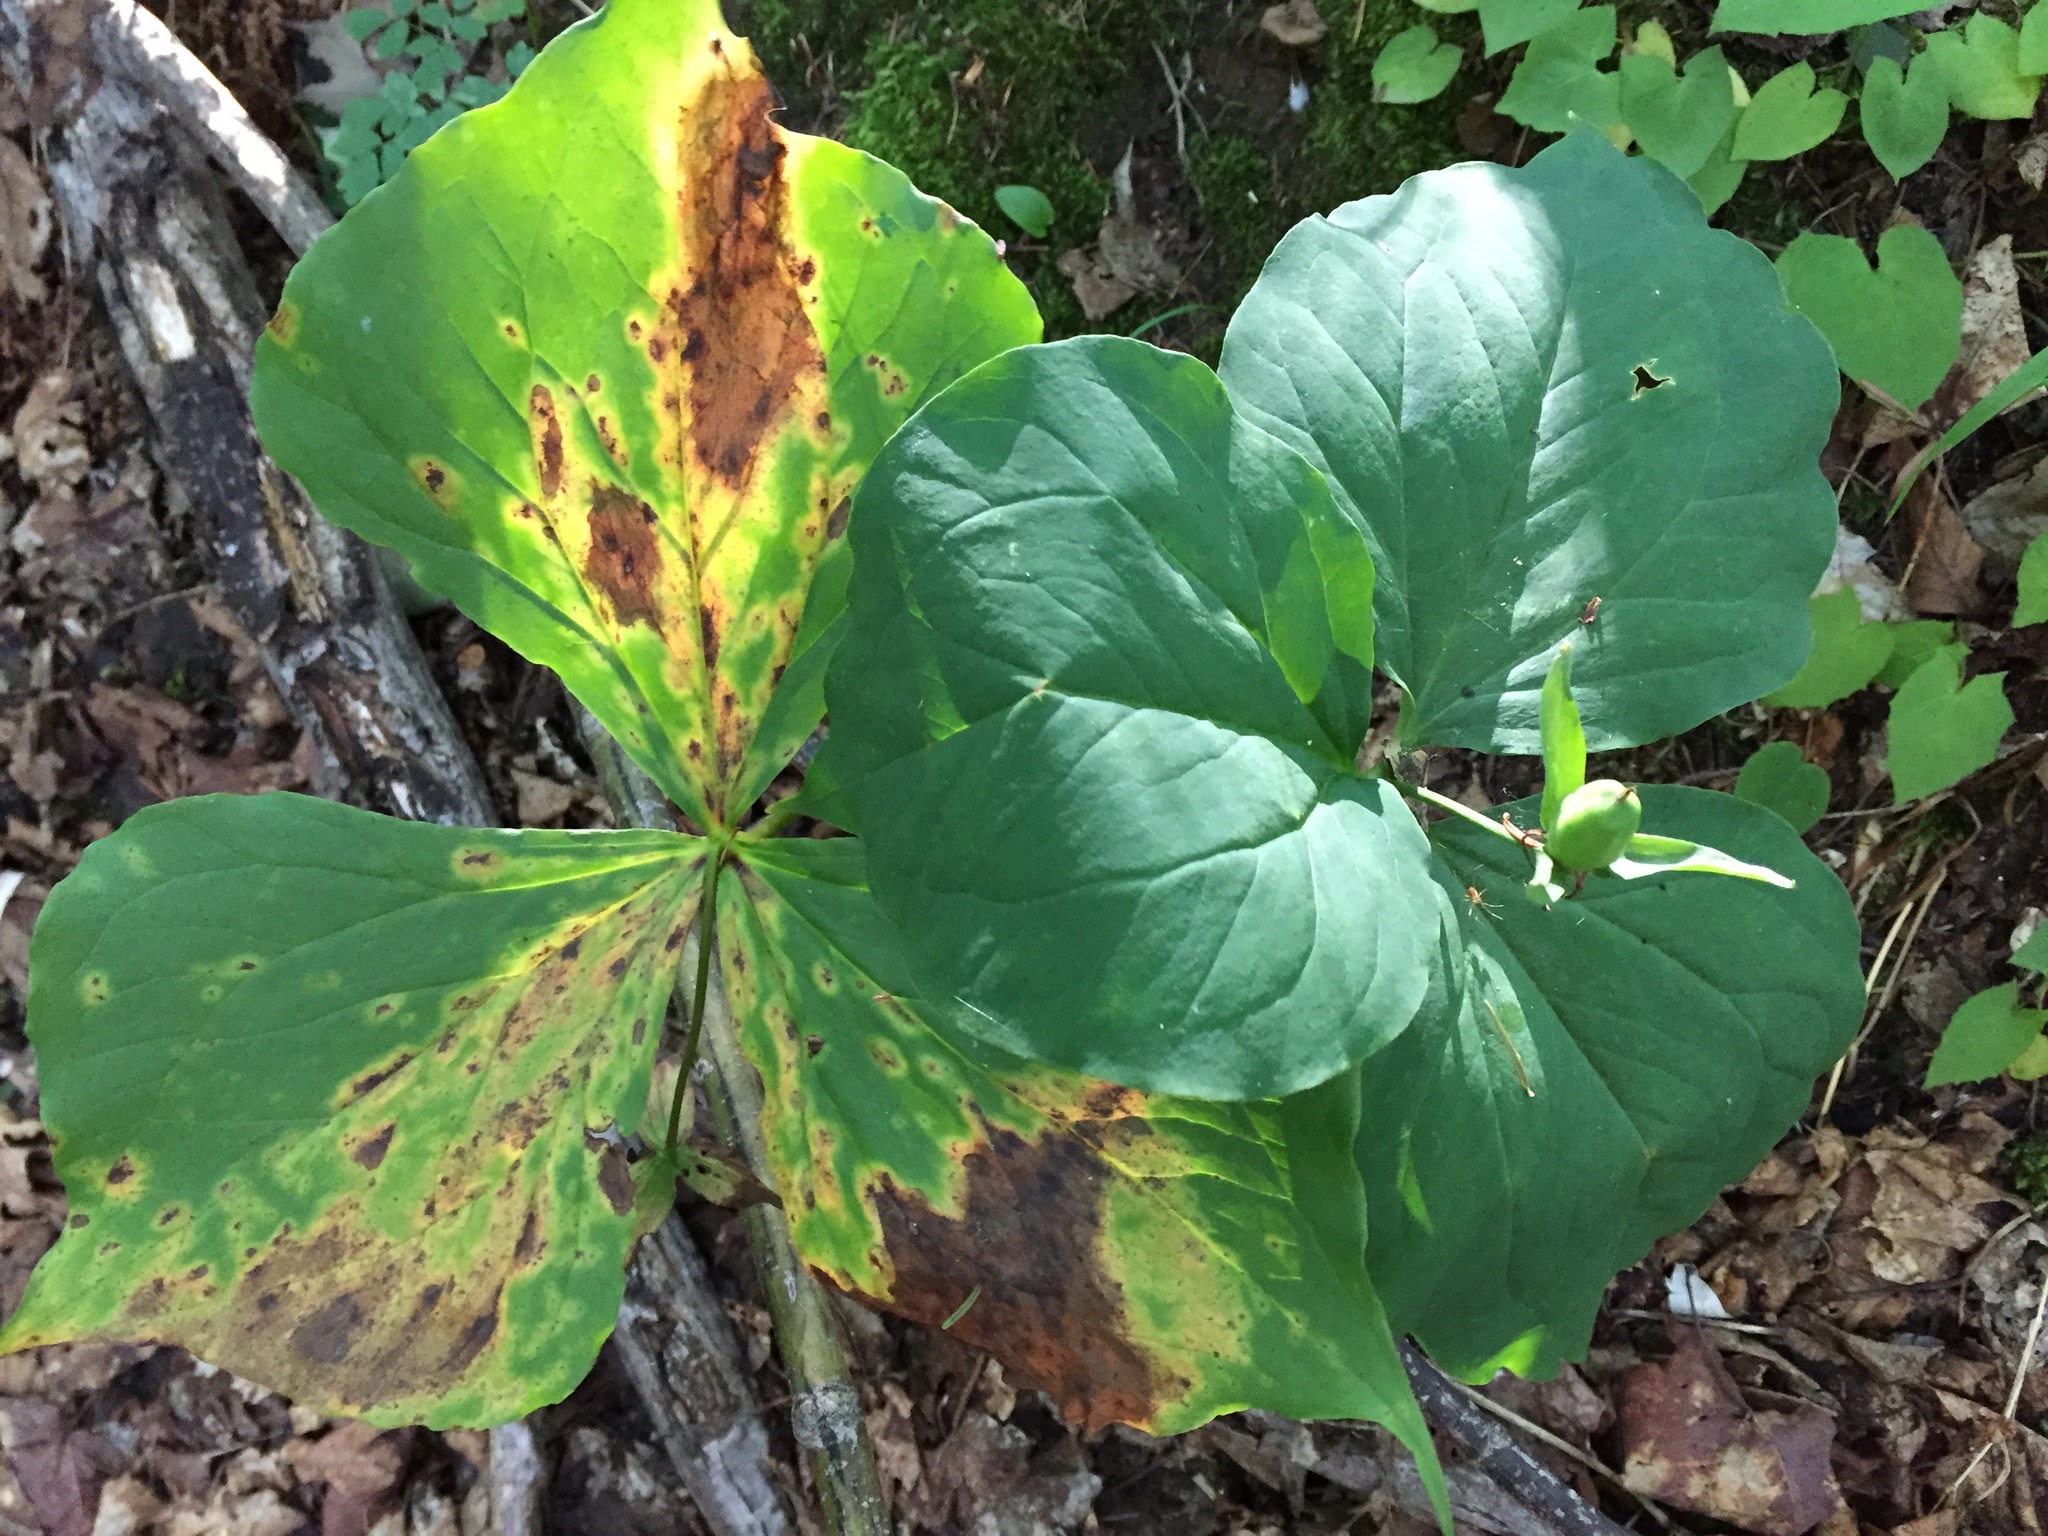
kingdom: Plantae
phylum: Tracheophyta
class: Liliopsida
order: Liliales
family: Melanthiaceae
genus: Trillium
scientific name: Trillium erectum
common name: Purple trillium
